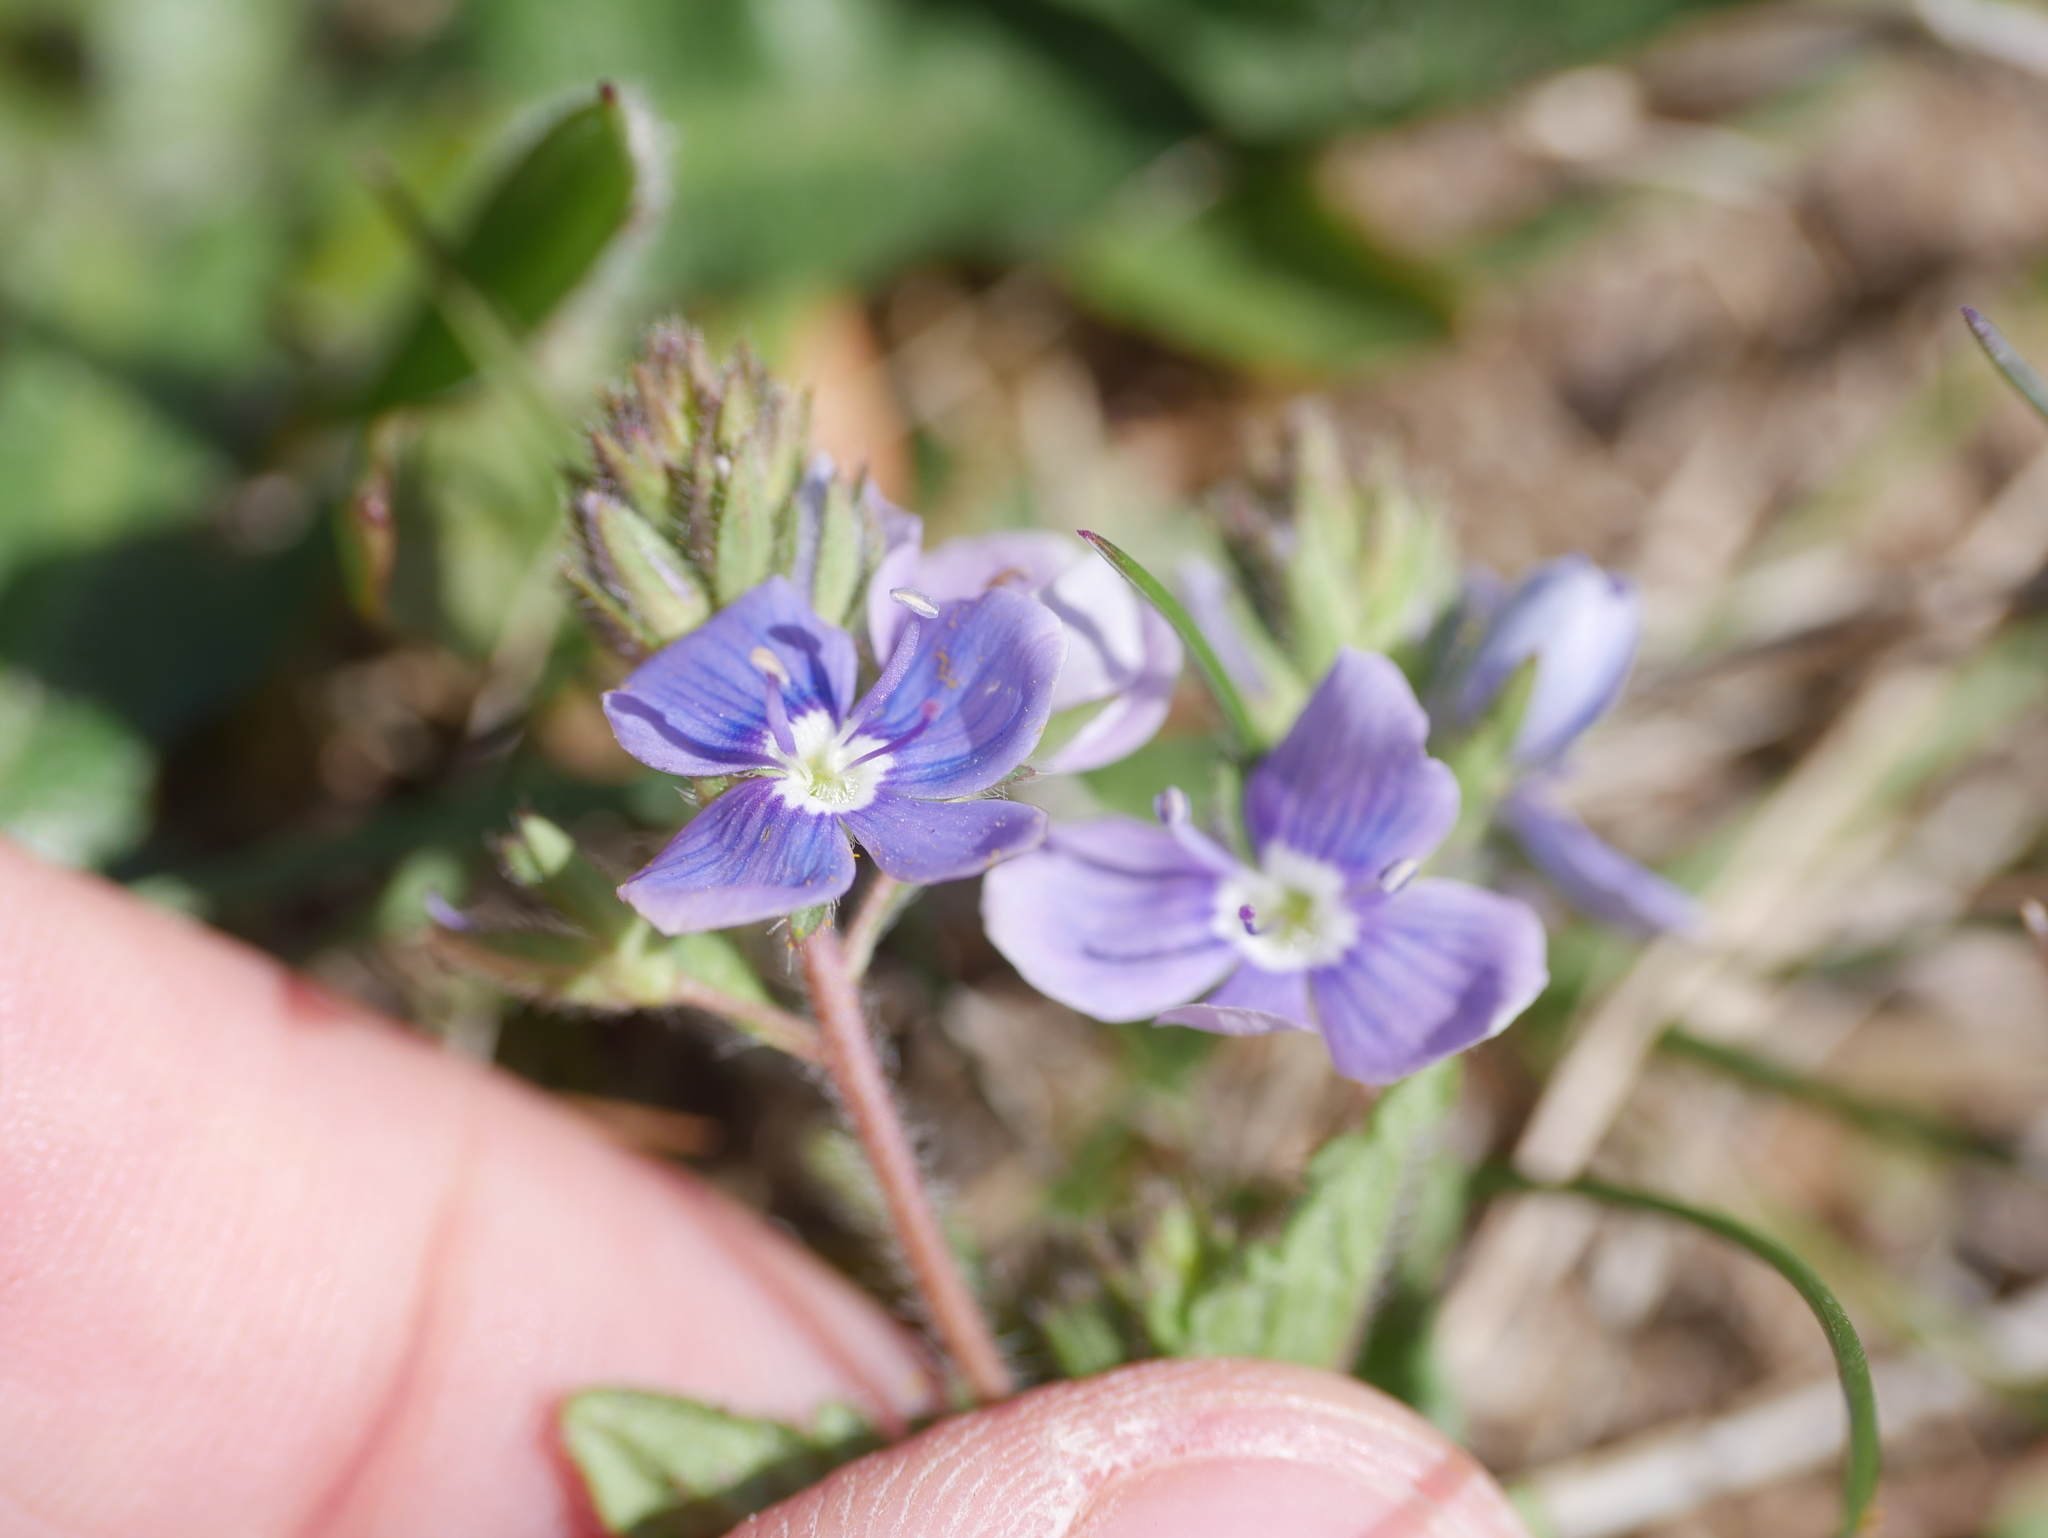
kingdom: Plantae
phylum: Tracheophyta
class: Magnoliopsida
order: Lamiales
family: Plantaginaceae
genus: Veronica
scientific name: Veronica chamaedrys
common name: Germander speedwell
